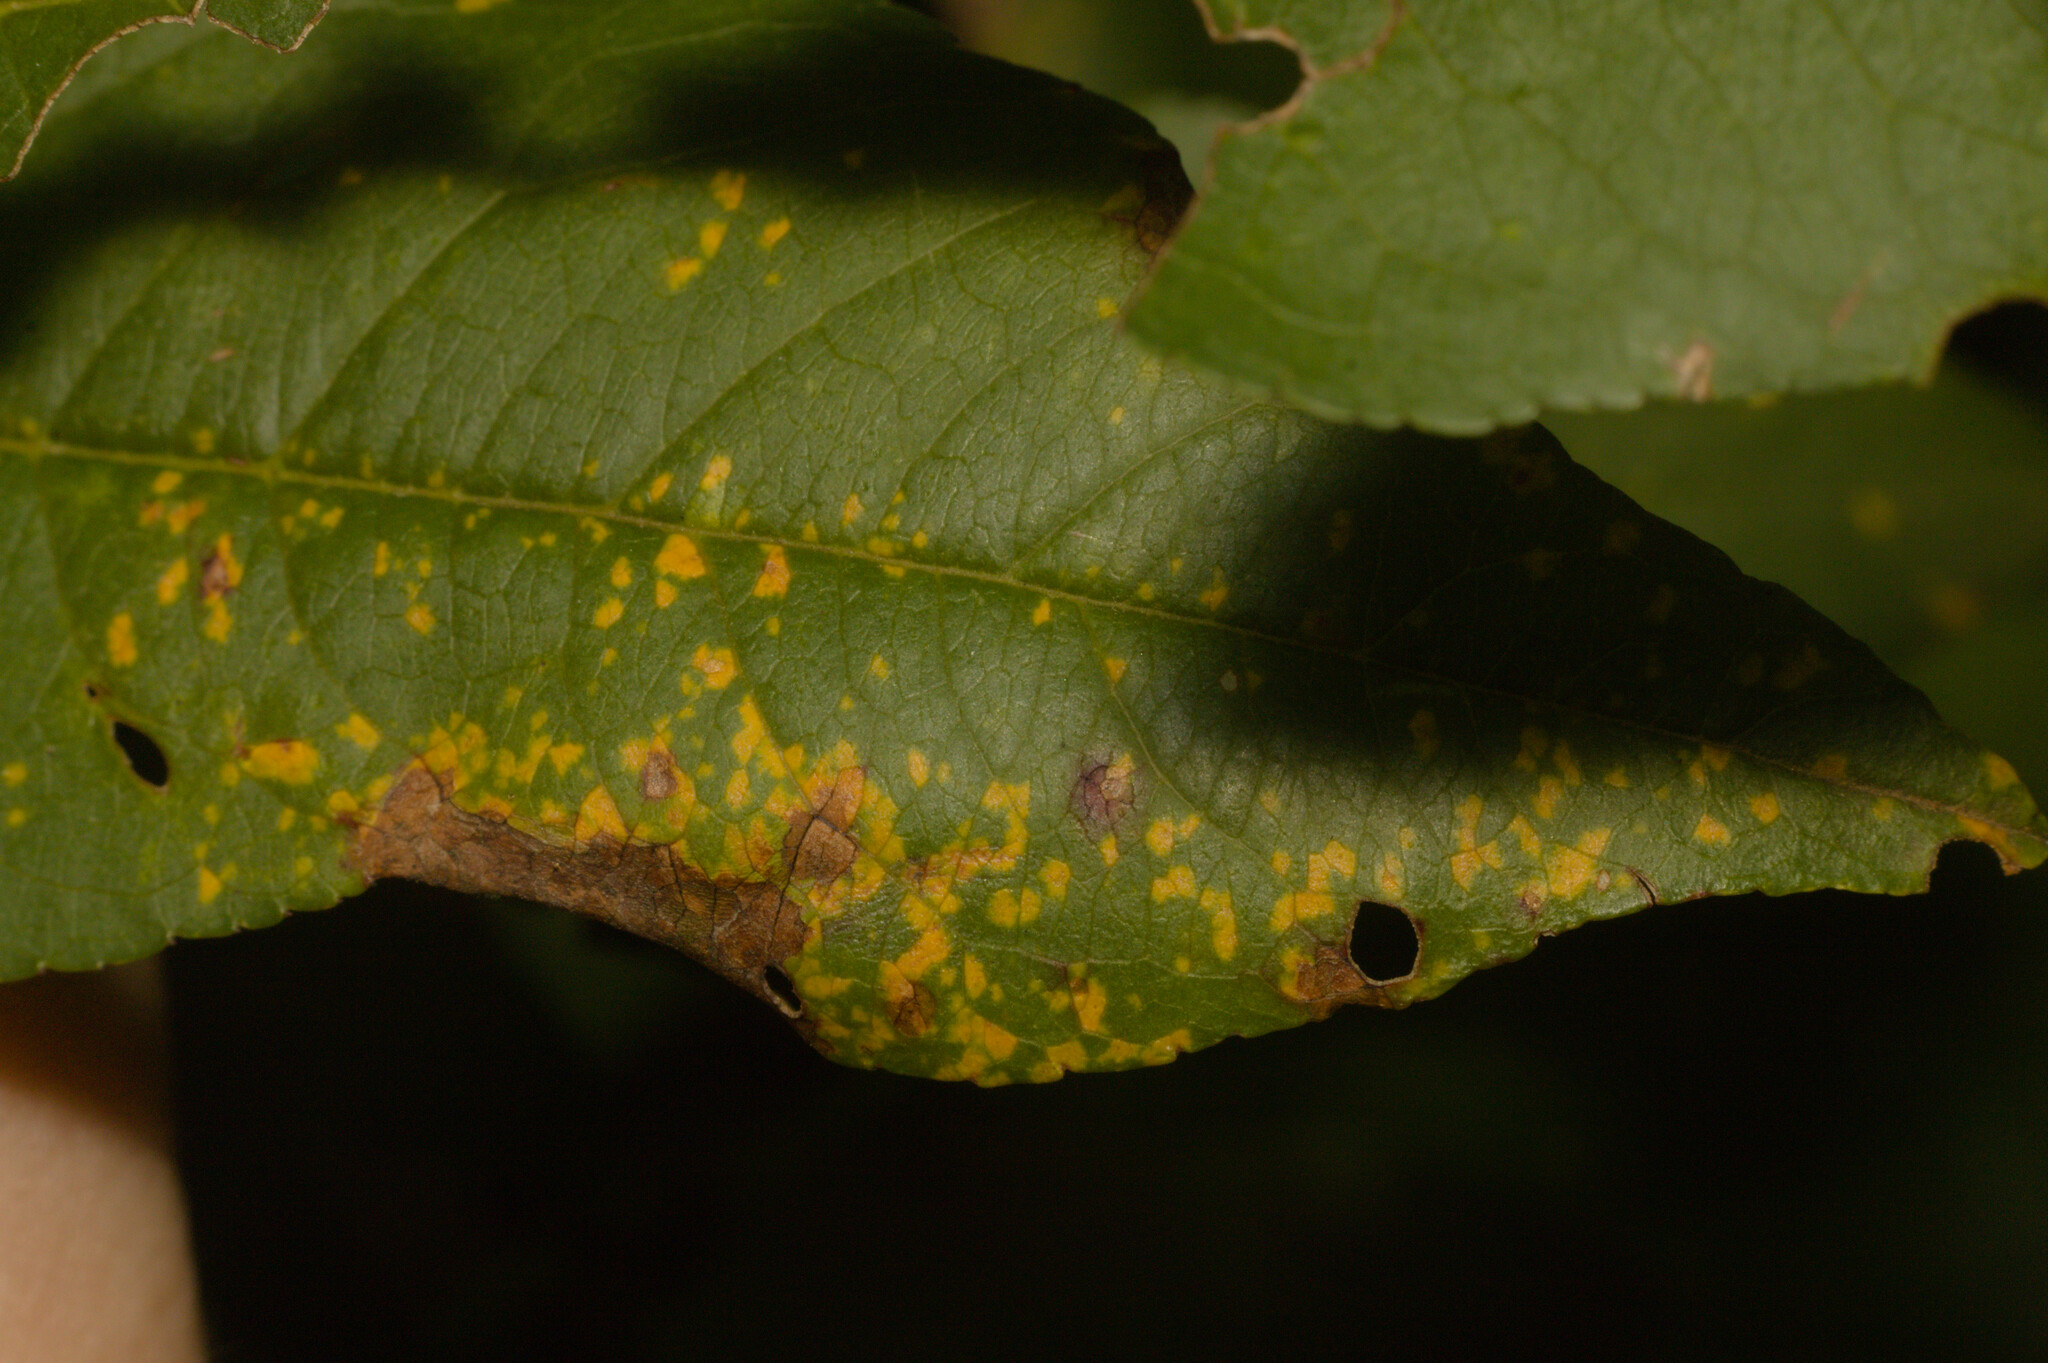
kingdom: Fungi
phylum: Basidiomycota
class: Pucciniomycetes
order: Pucciniales
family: Tranzscheliaceae
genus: Tranzschelia
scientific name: Tranzschelia discolor
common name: Plum rust
